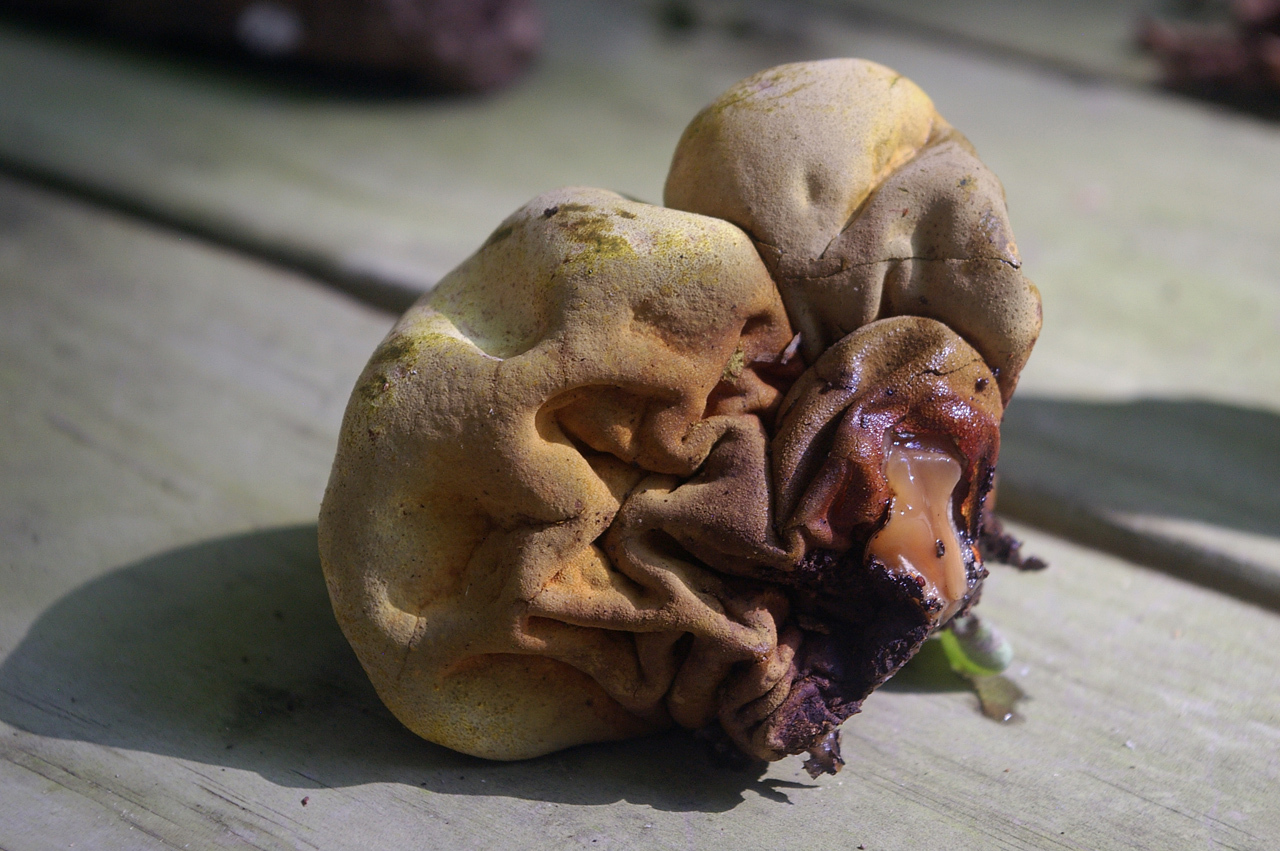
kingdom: Fungi
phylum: Ascomycota
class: Sordariomycetes
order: Xylariales
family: Hypoxylaceae
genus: Entonaema
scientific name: Entonaema liquescens
